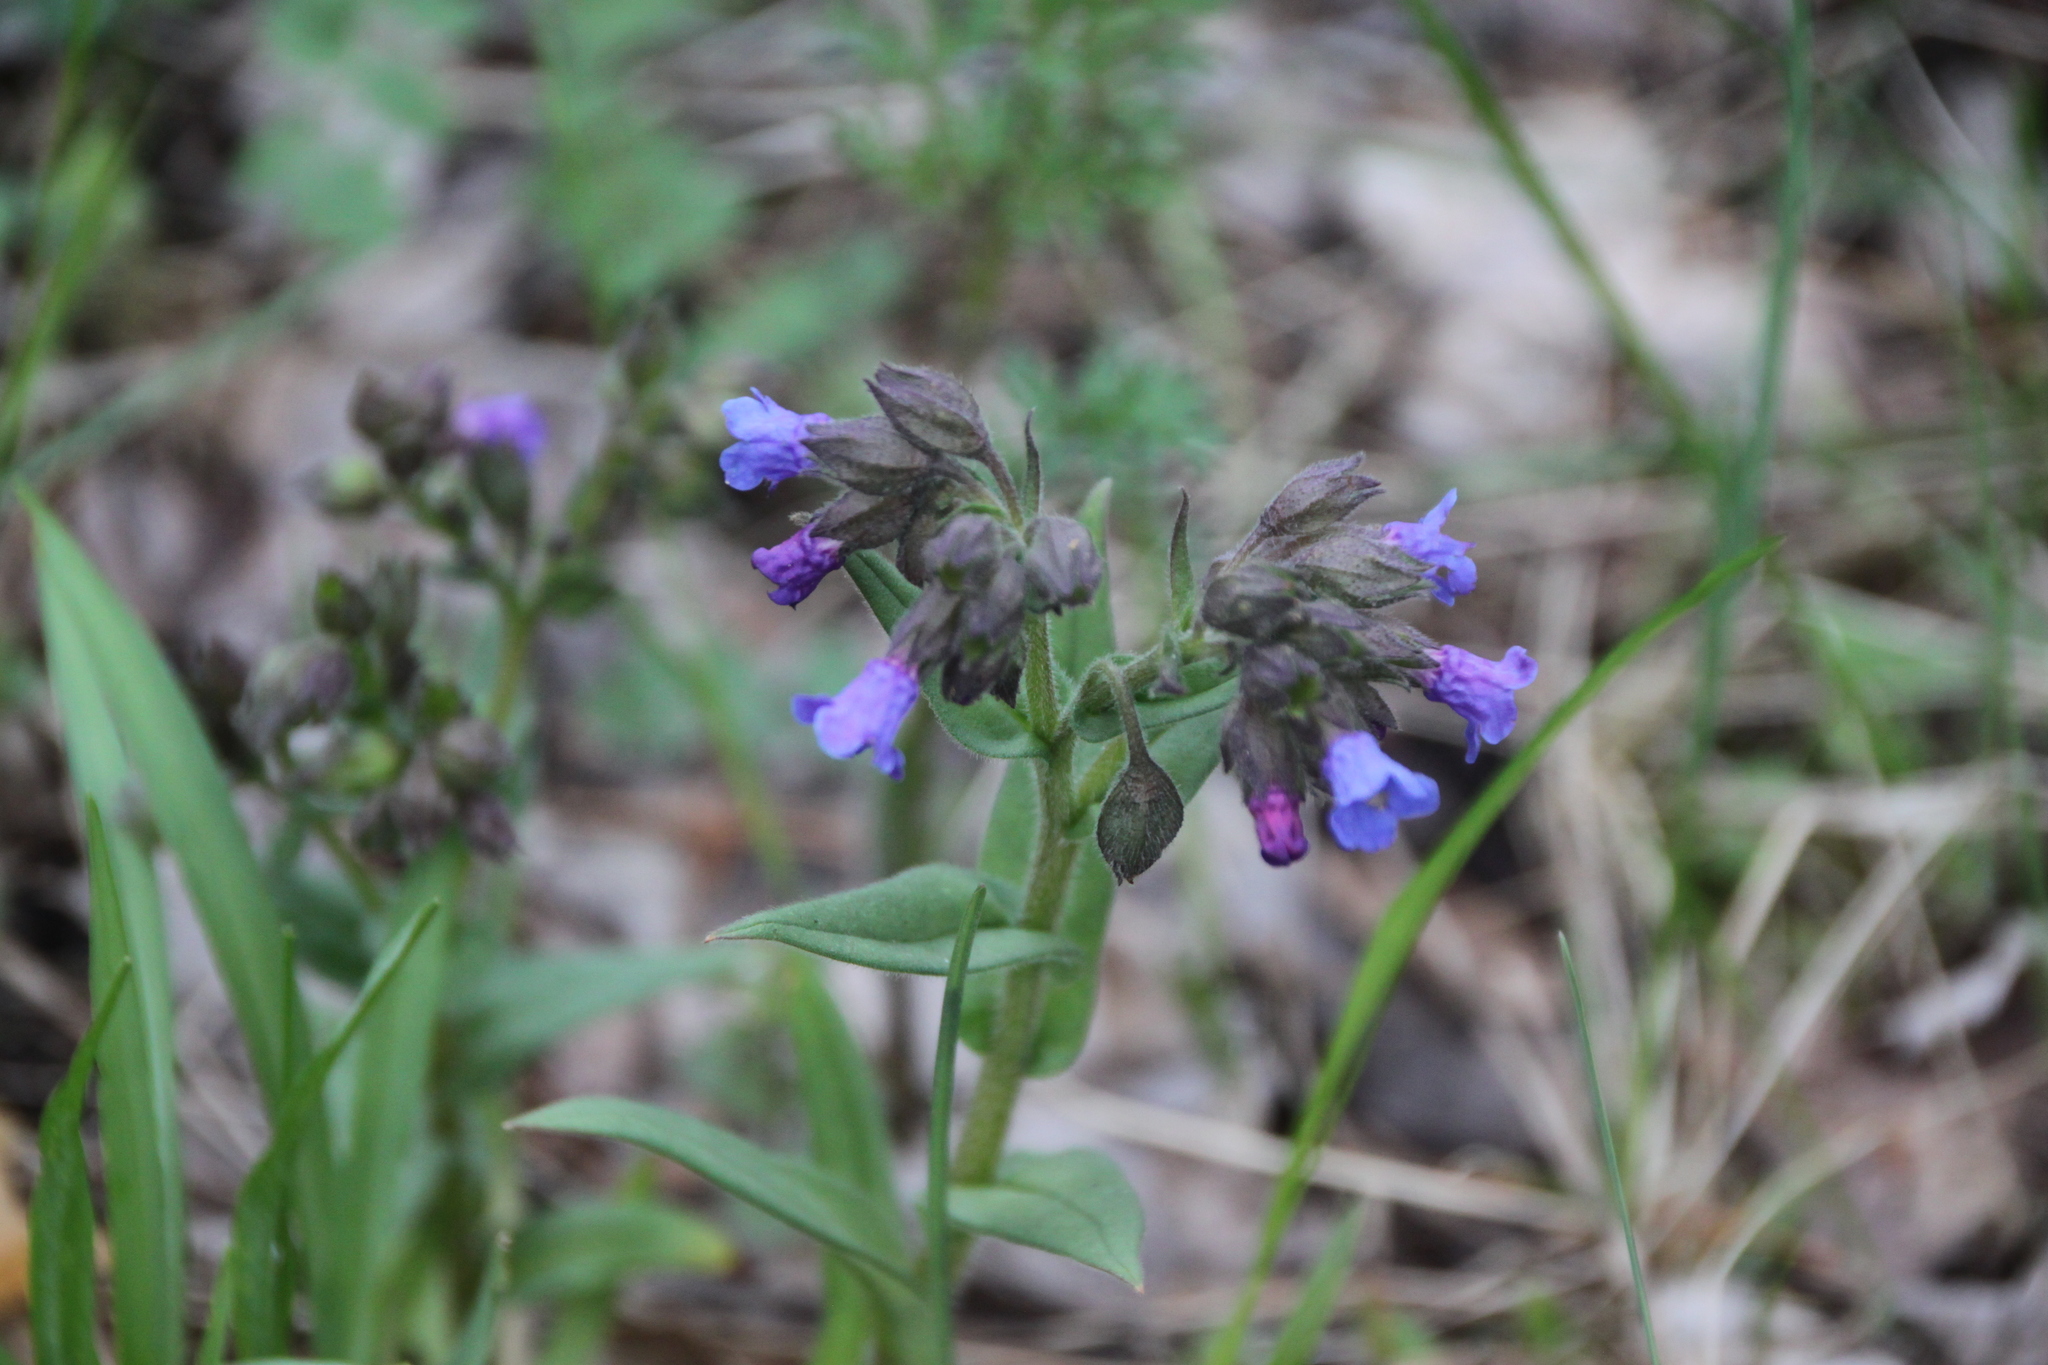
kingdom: Plantae
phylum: Tracheophyta
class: Magnoliopsida
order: Boraginales
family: Boraginaceae
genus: Pulmonaria
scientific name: Pulmonaria angustifolia
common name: Blue cowslip
